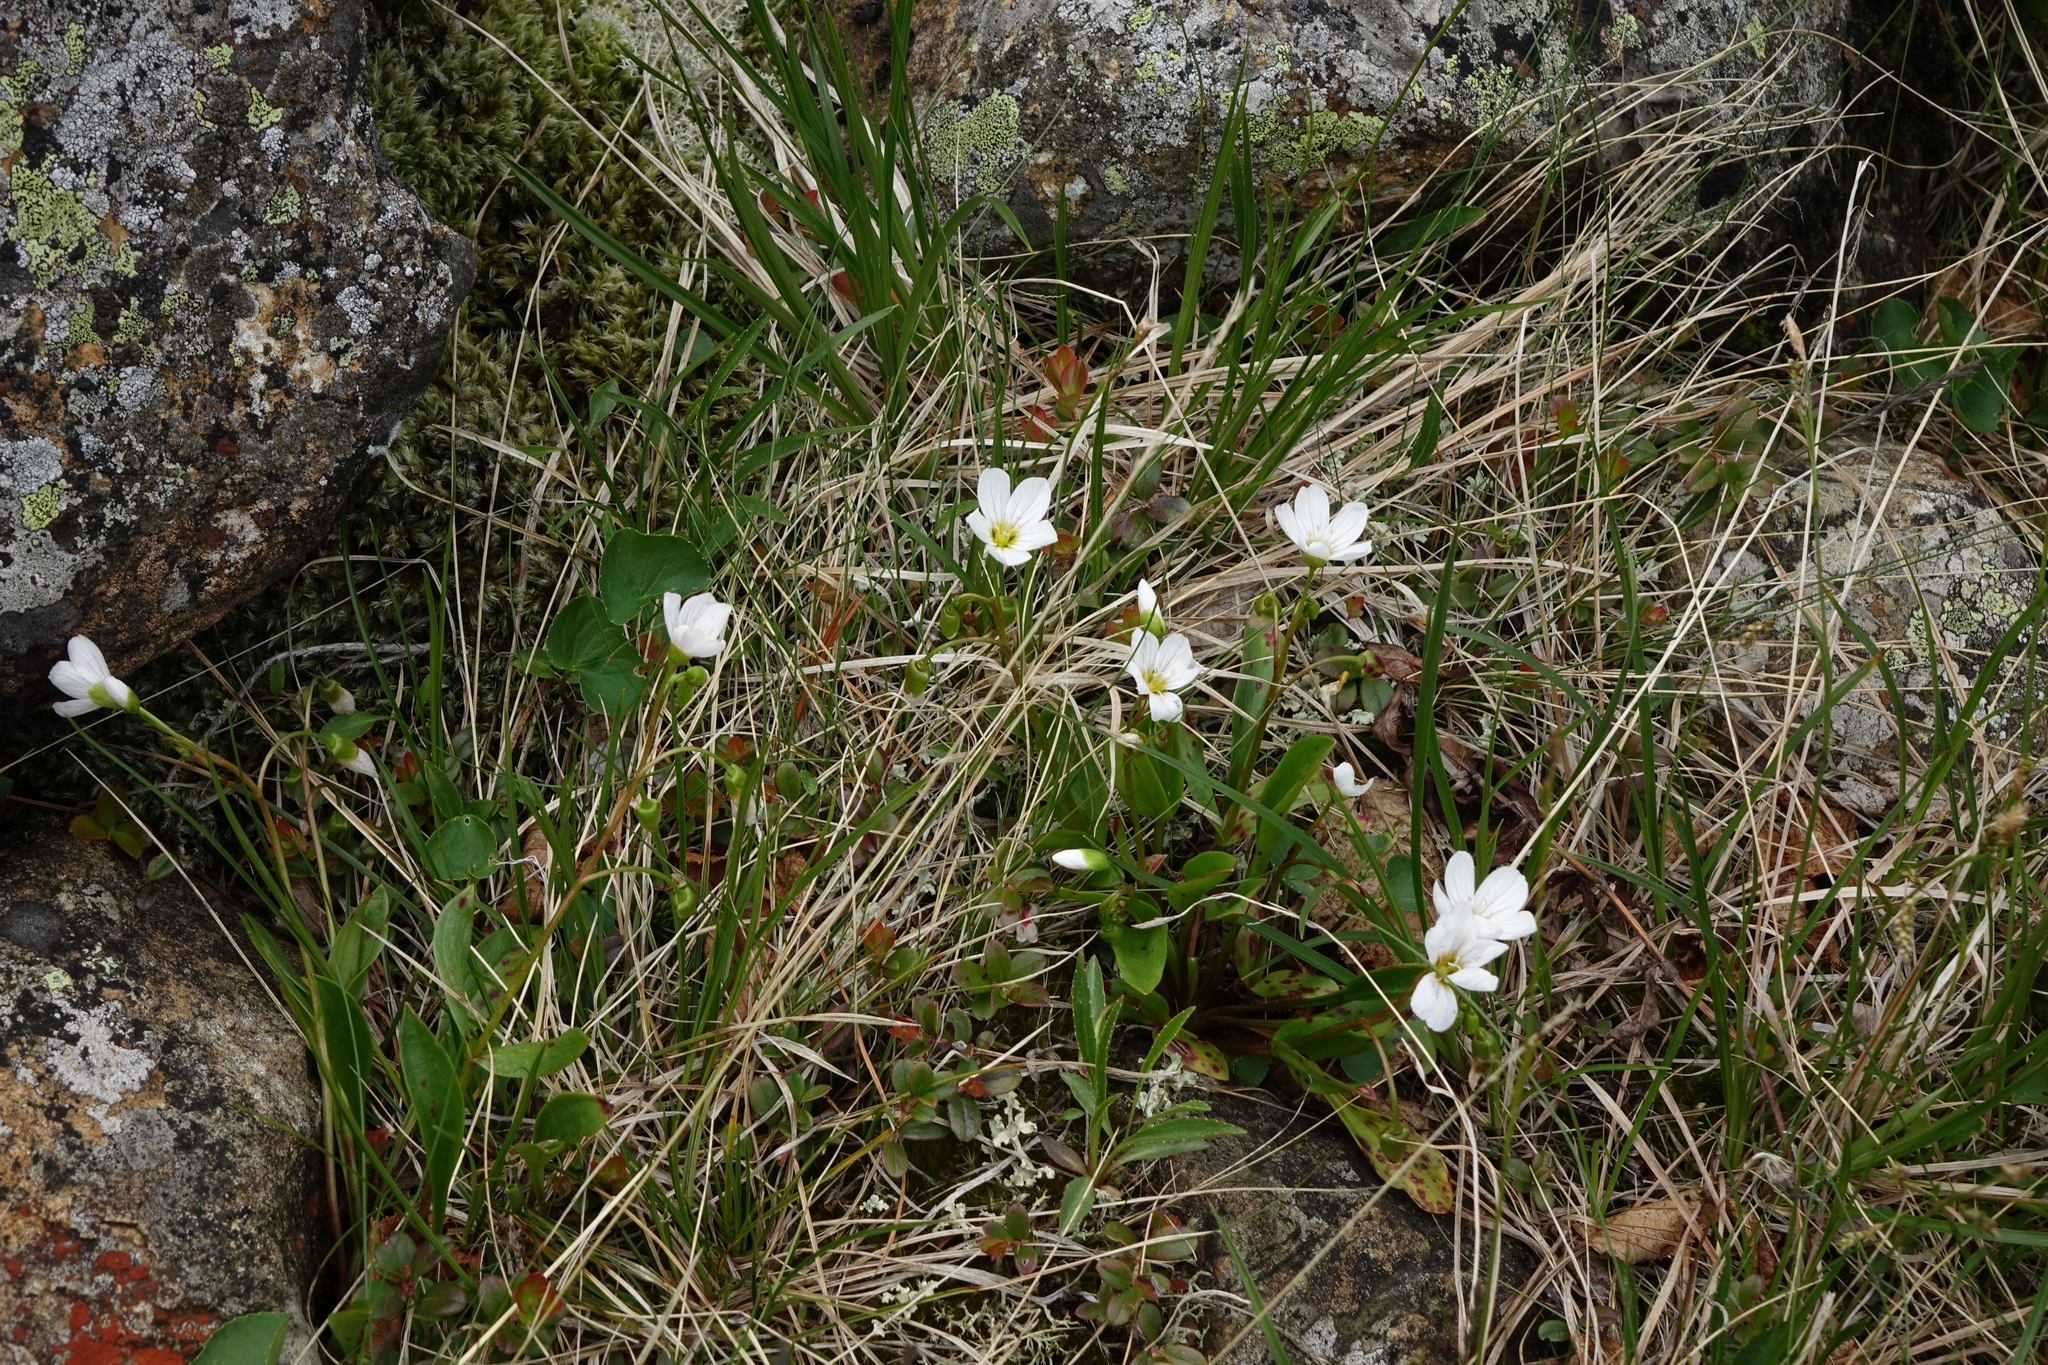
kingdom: Plantae
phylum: Tracheophyta
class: Magnoliopsida
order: Caryophyllales
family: Montiaceae
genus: Claytonia
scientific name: Claytonia joanneana
